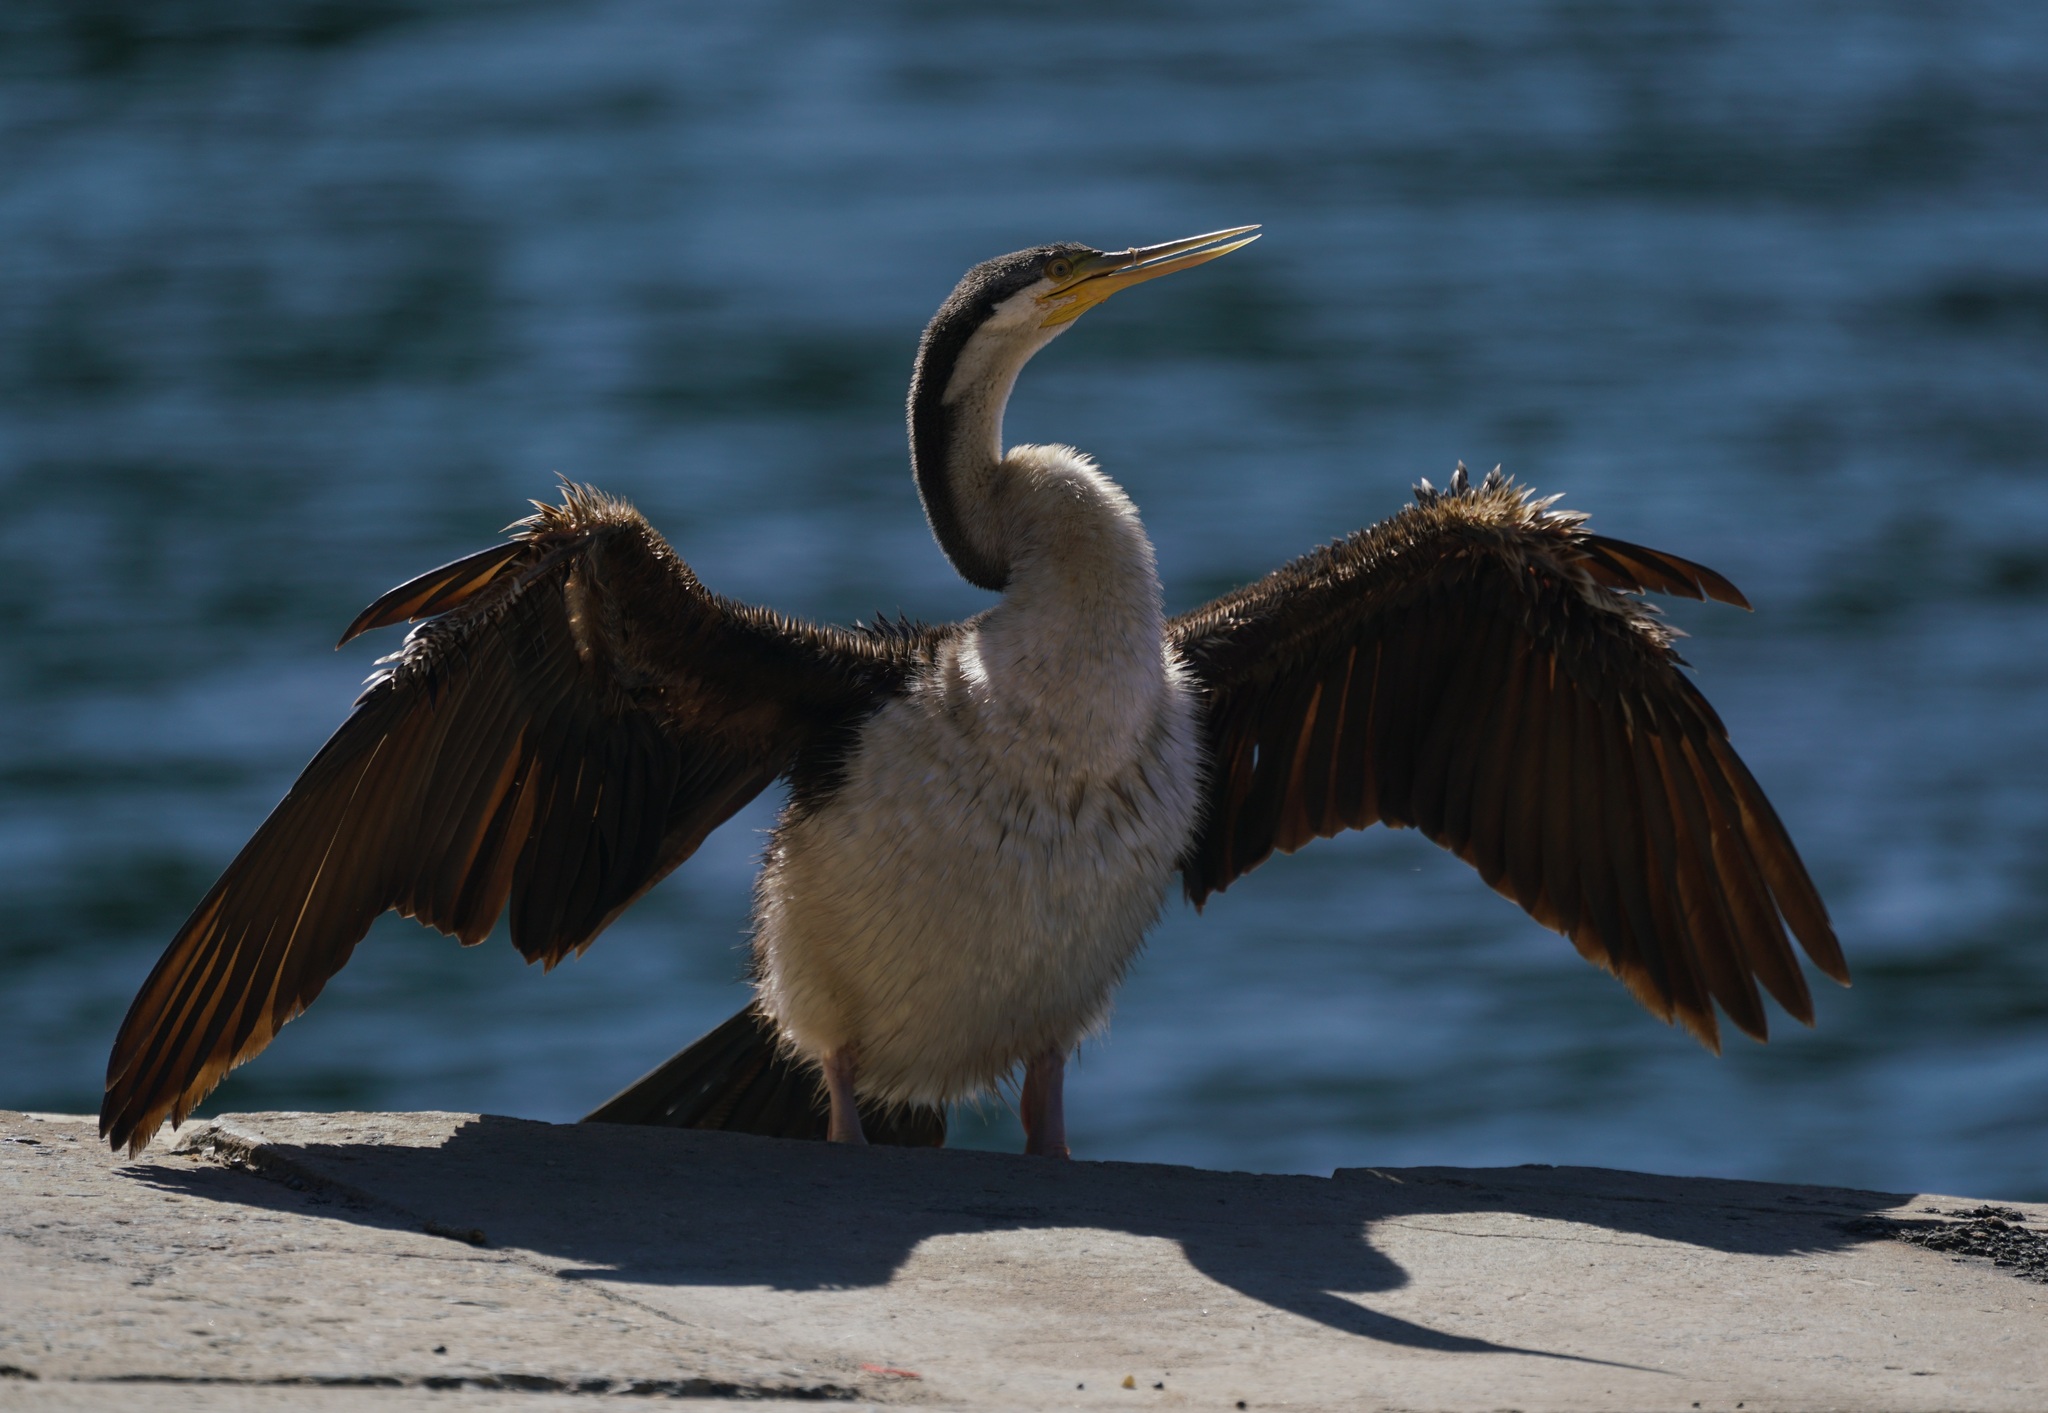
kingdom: Animalia
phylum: Chordata
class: Aves
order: Suliformes
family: Anhingidae
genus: Anhinga
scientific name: Anhinga novaehollandiae
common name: Australasian darter
